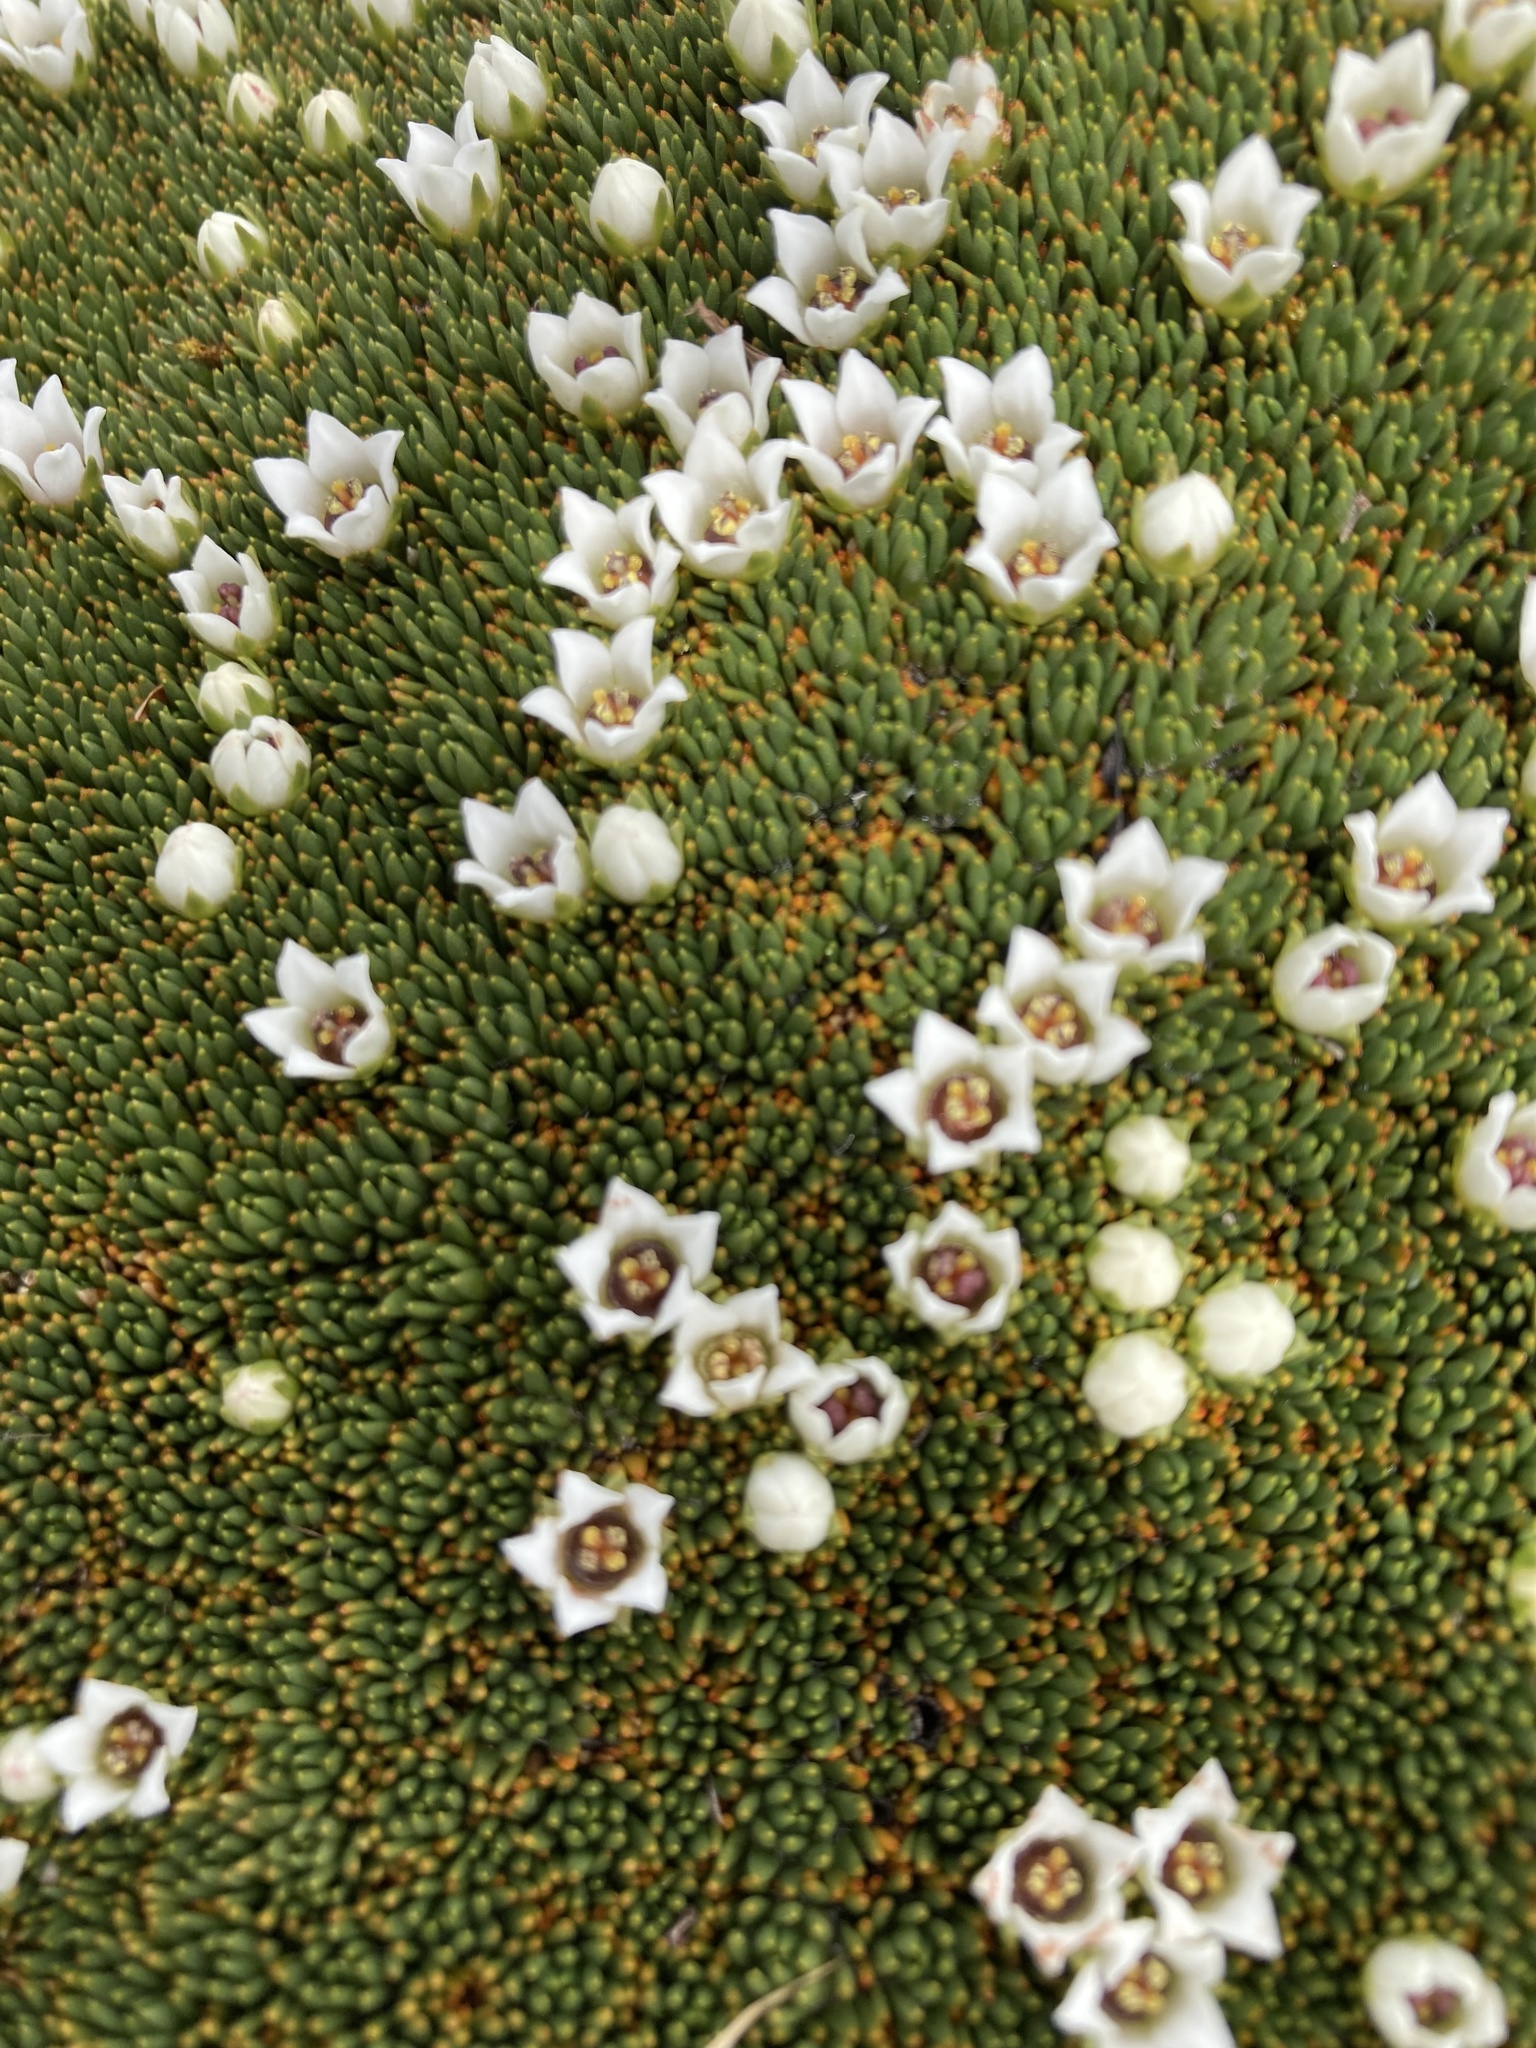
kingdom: Plantae
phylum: Tracheophyta
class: Magnoliopsida
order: Asterales
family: Stylidiaceae
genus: Donatia
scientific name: Donatia novae-zelandiae
